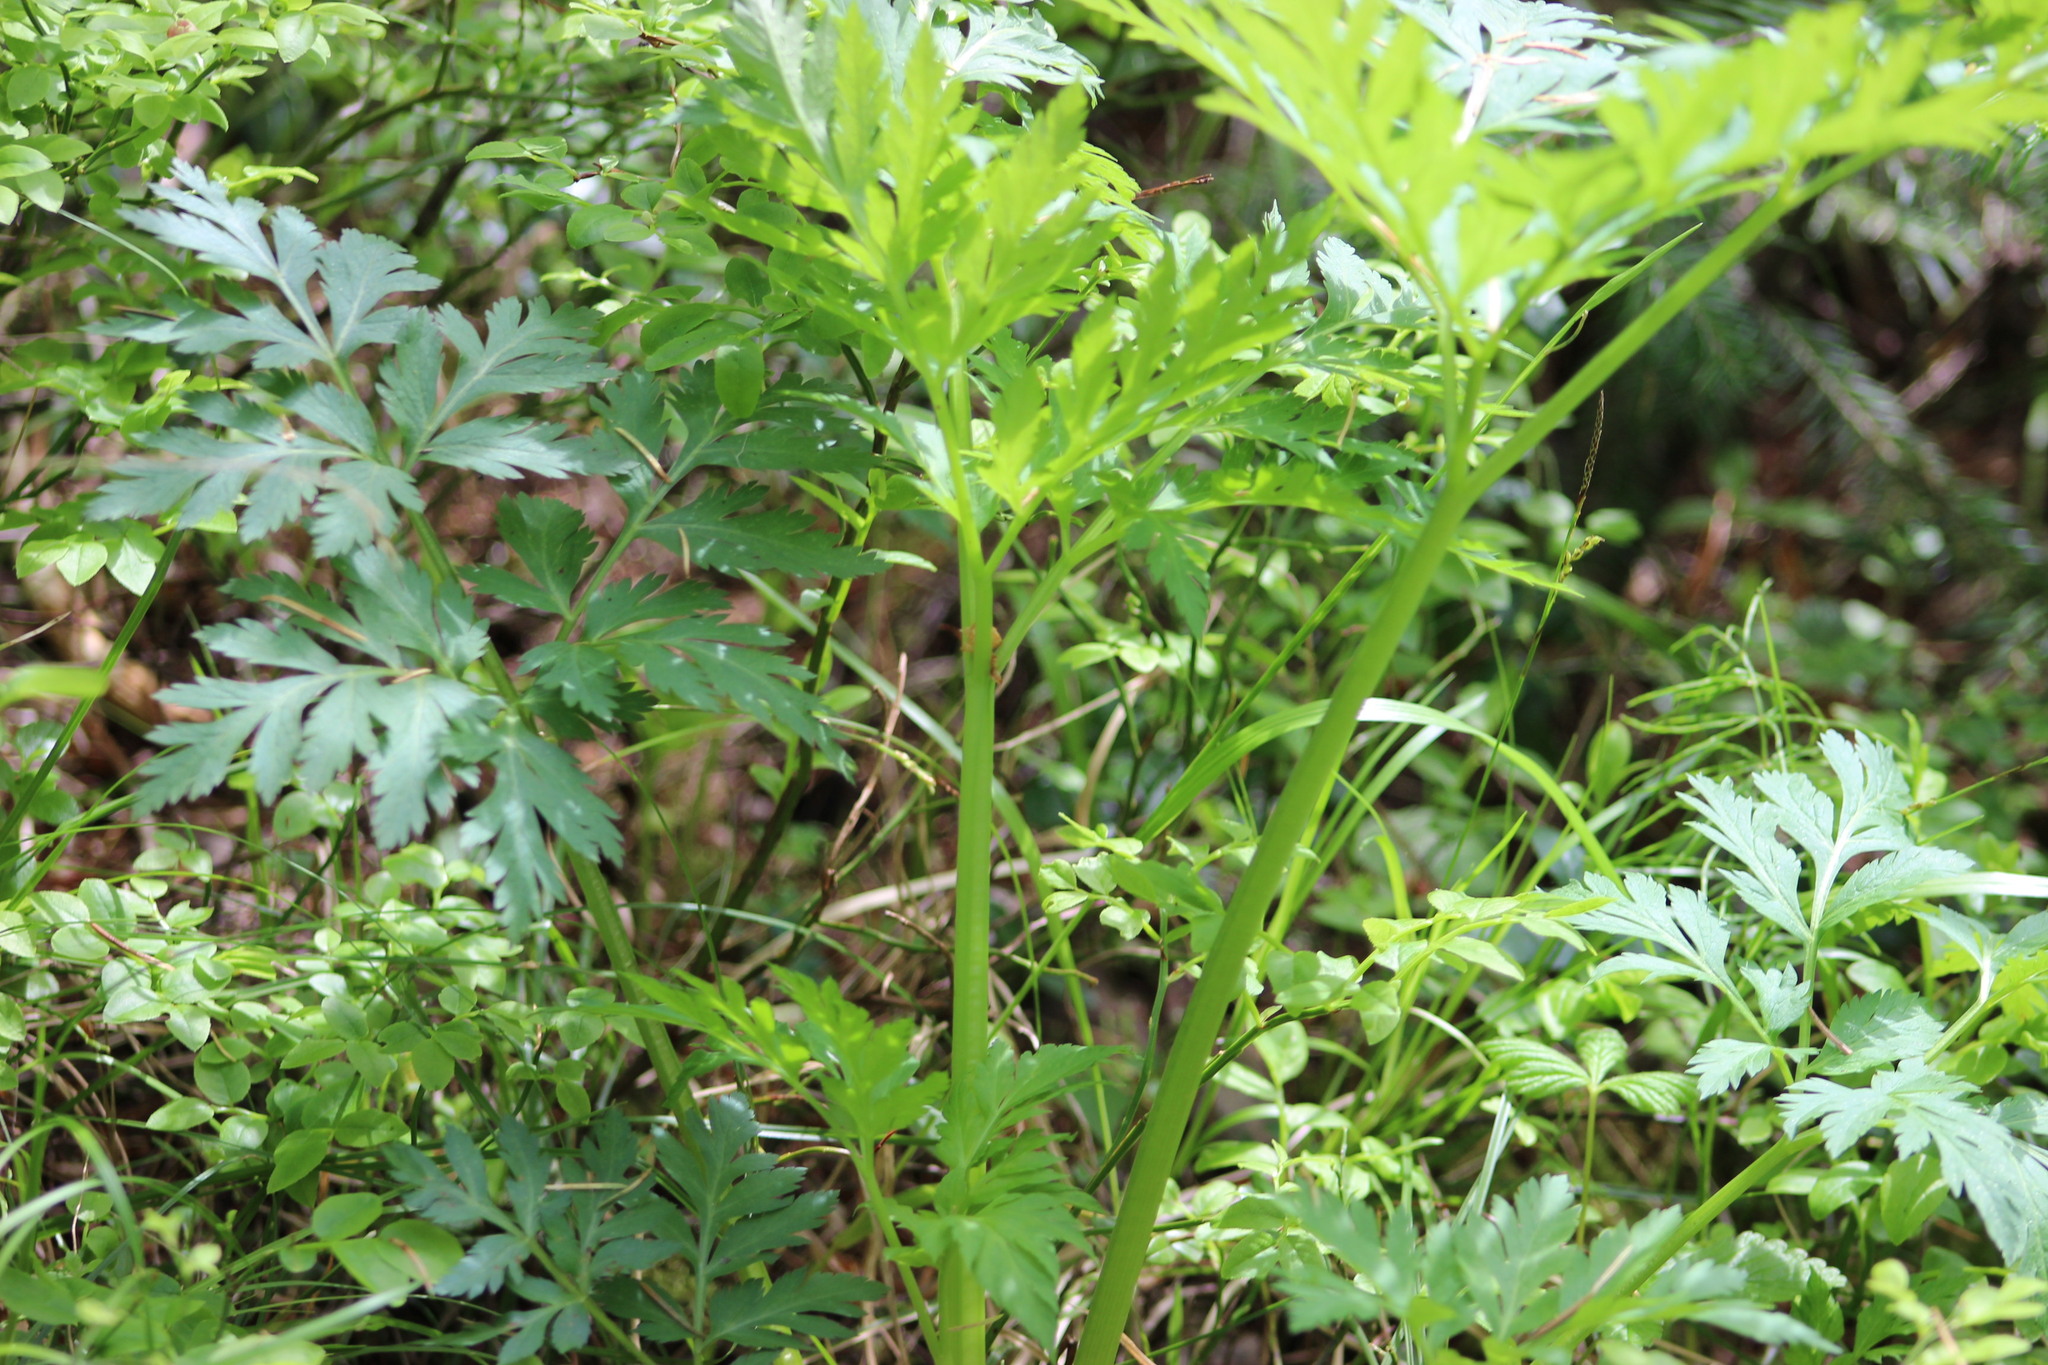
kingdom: Plantae
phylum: Tracheophyta
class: Magnoliopsida
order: Apiales
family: Apiaceae
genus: Pleurospermum
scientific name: Pleurospermum uralense
